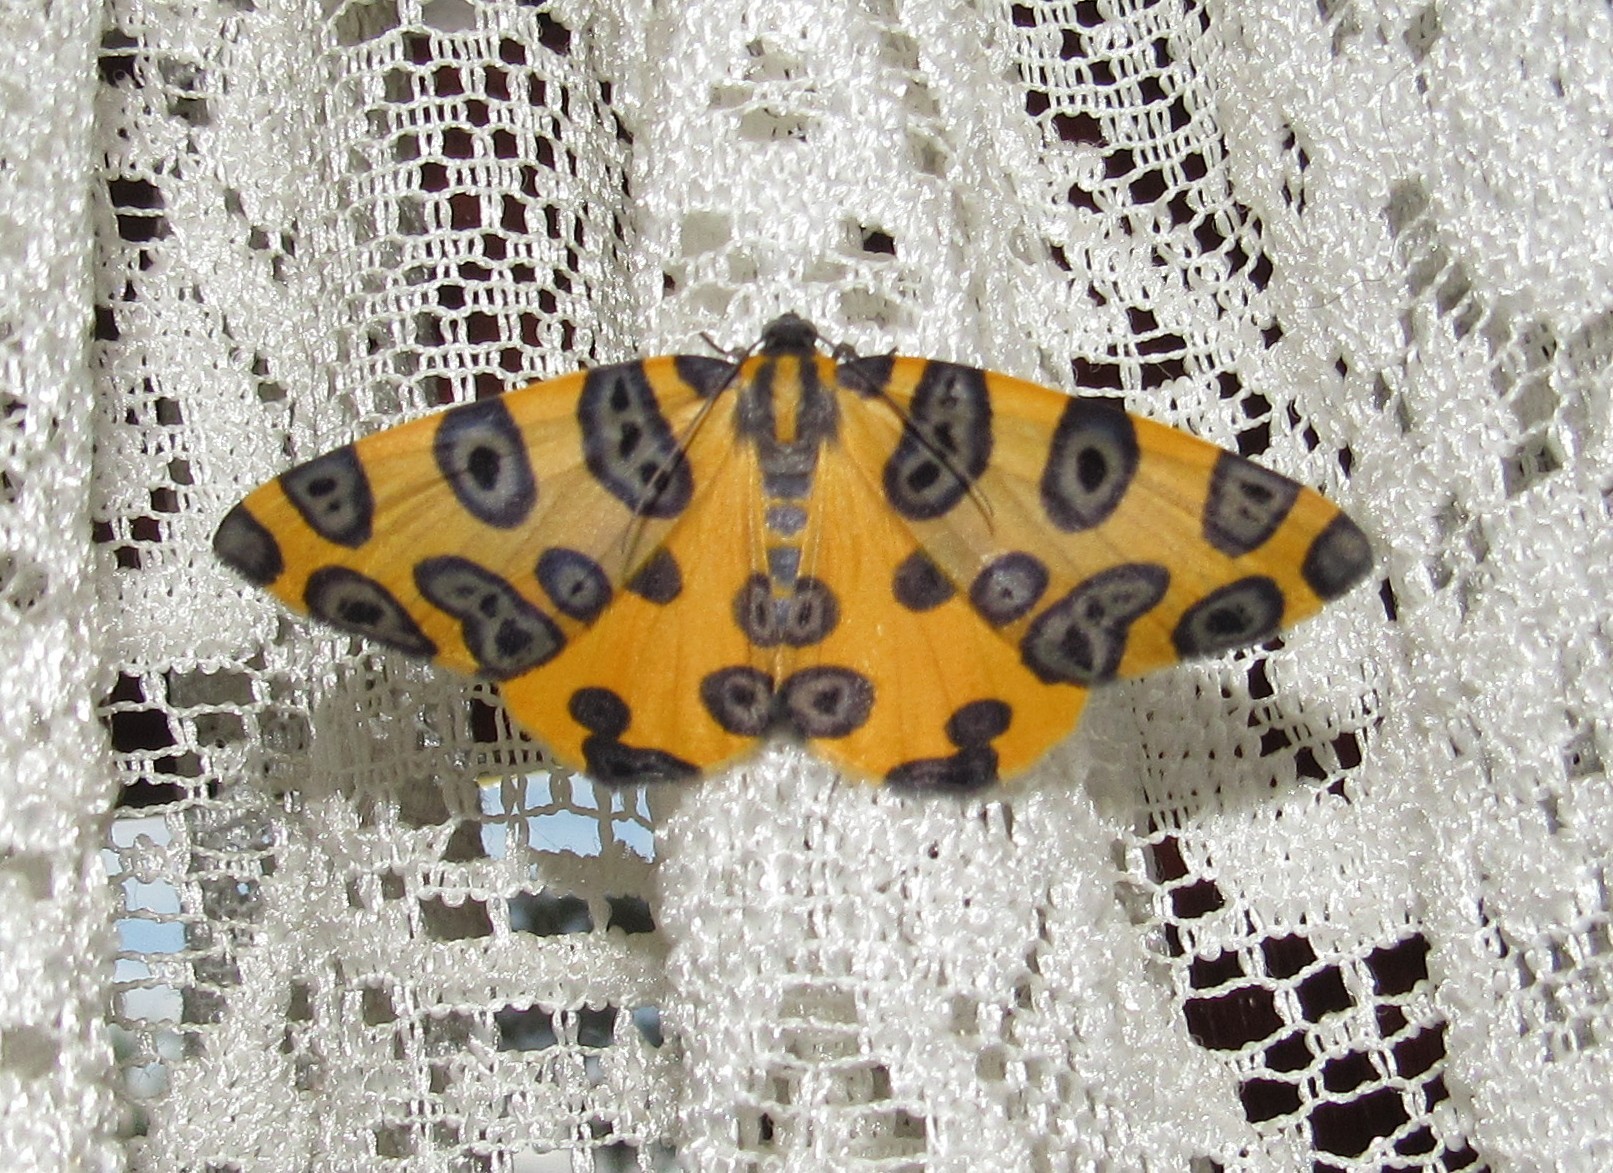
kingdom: Animalia
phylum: Arthropoda
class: Insecta
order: Lepidoptera
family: Geometridae
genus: Pantherodes
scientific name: Pantherodes pardalaria
